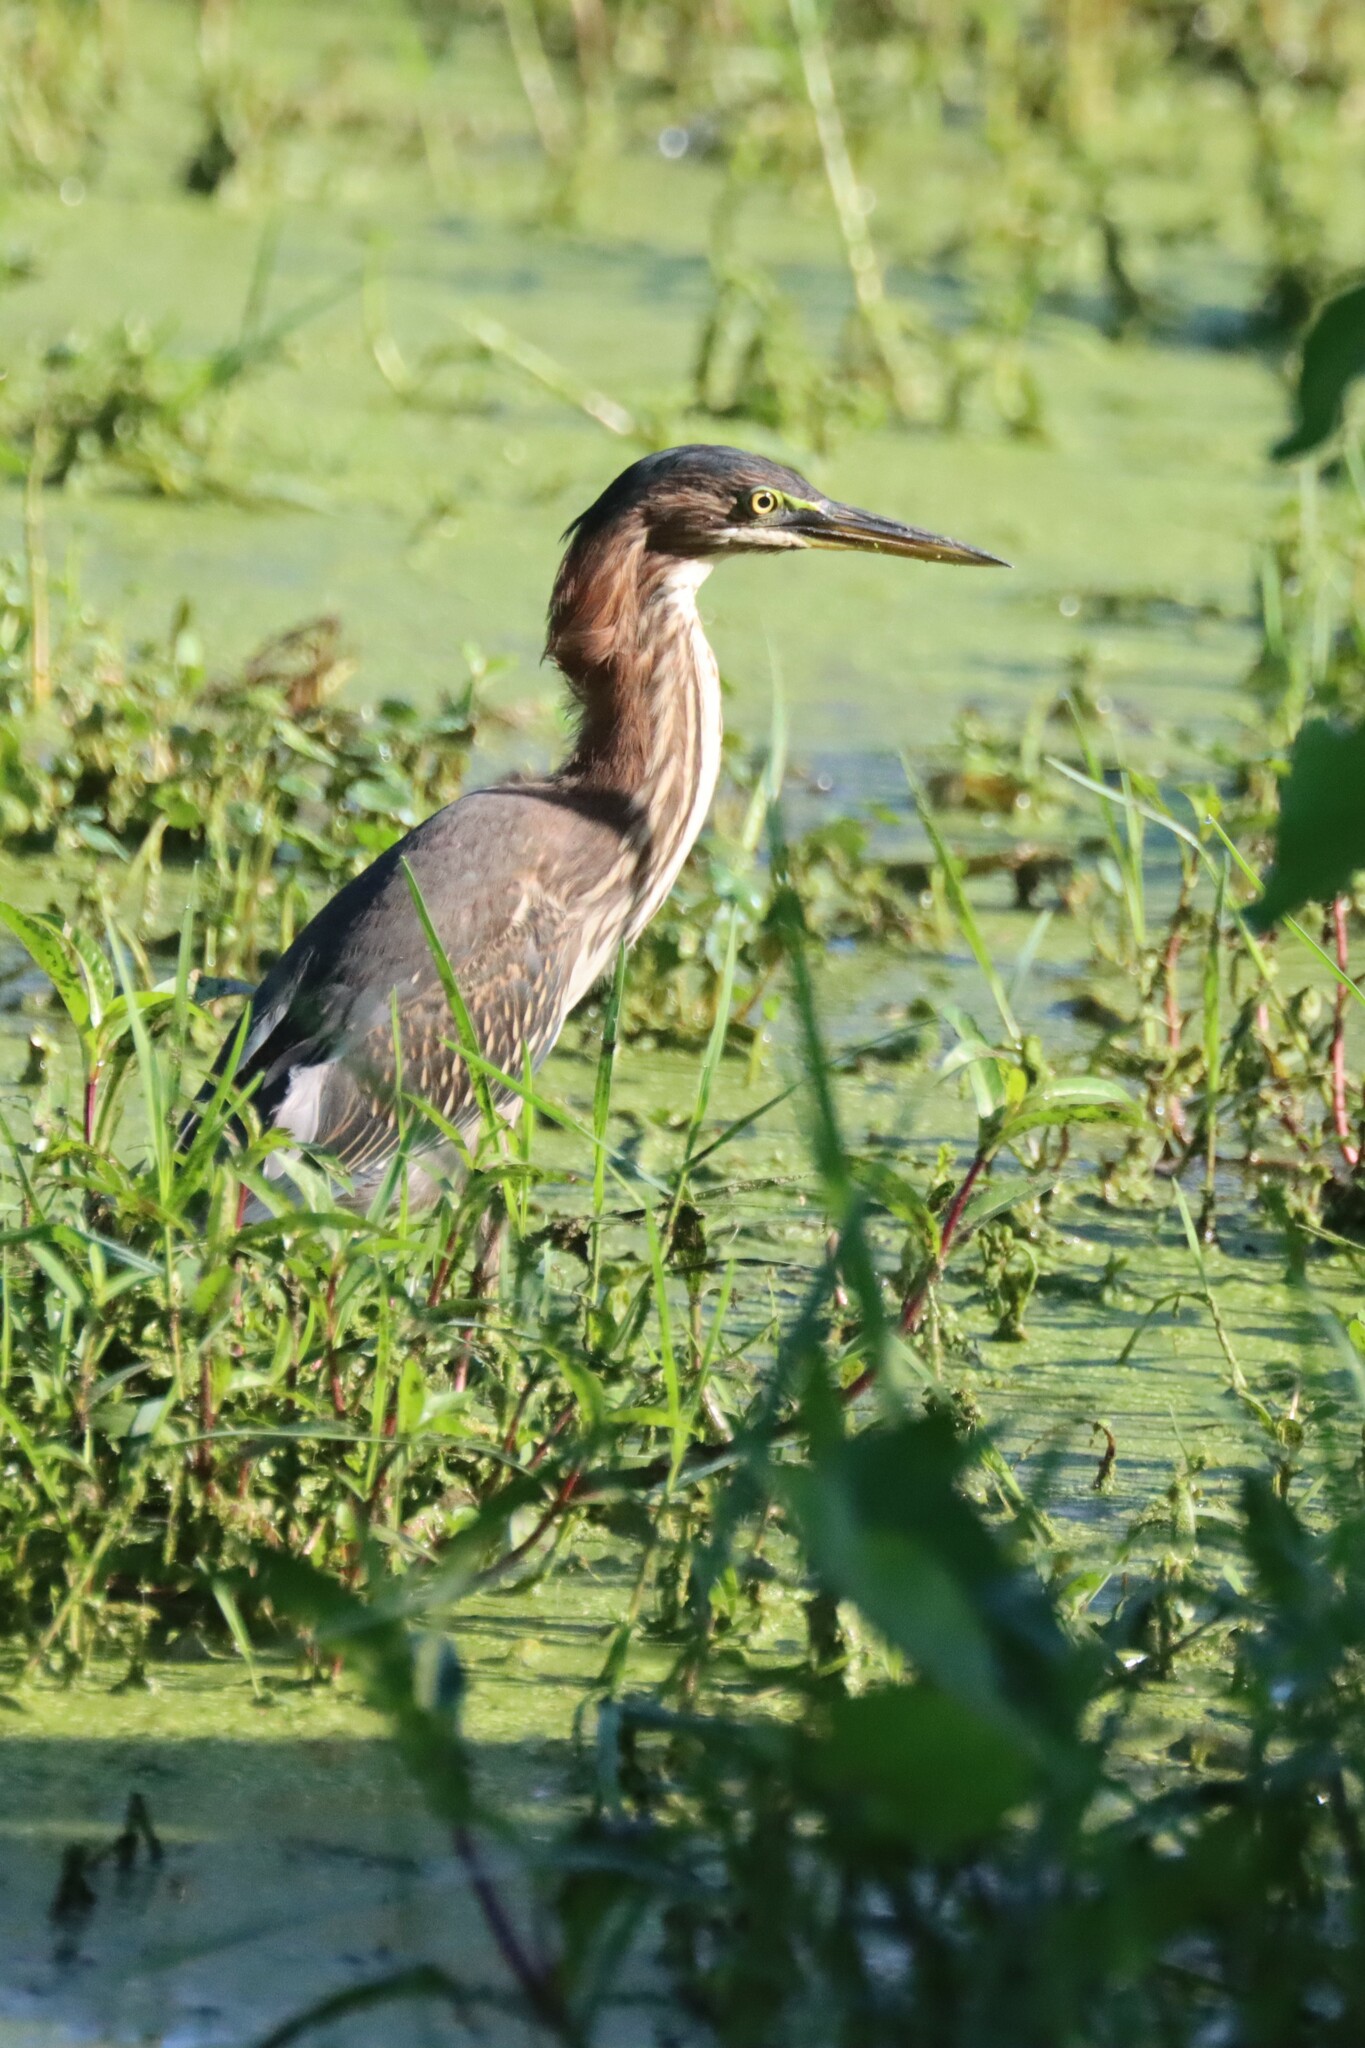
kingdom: Animalia
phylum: Chordata
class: Aves
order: Pelecaniformes
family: Ardeidae
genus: Butorides
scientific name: Butorides virescens
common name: Green heron
